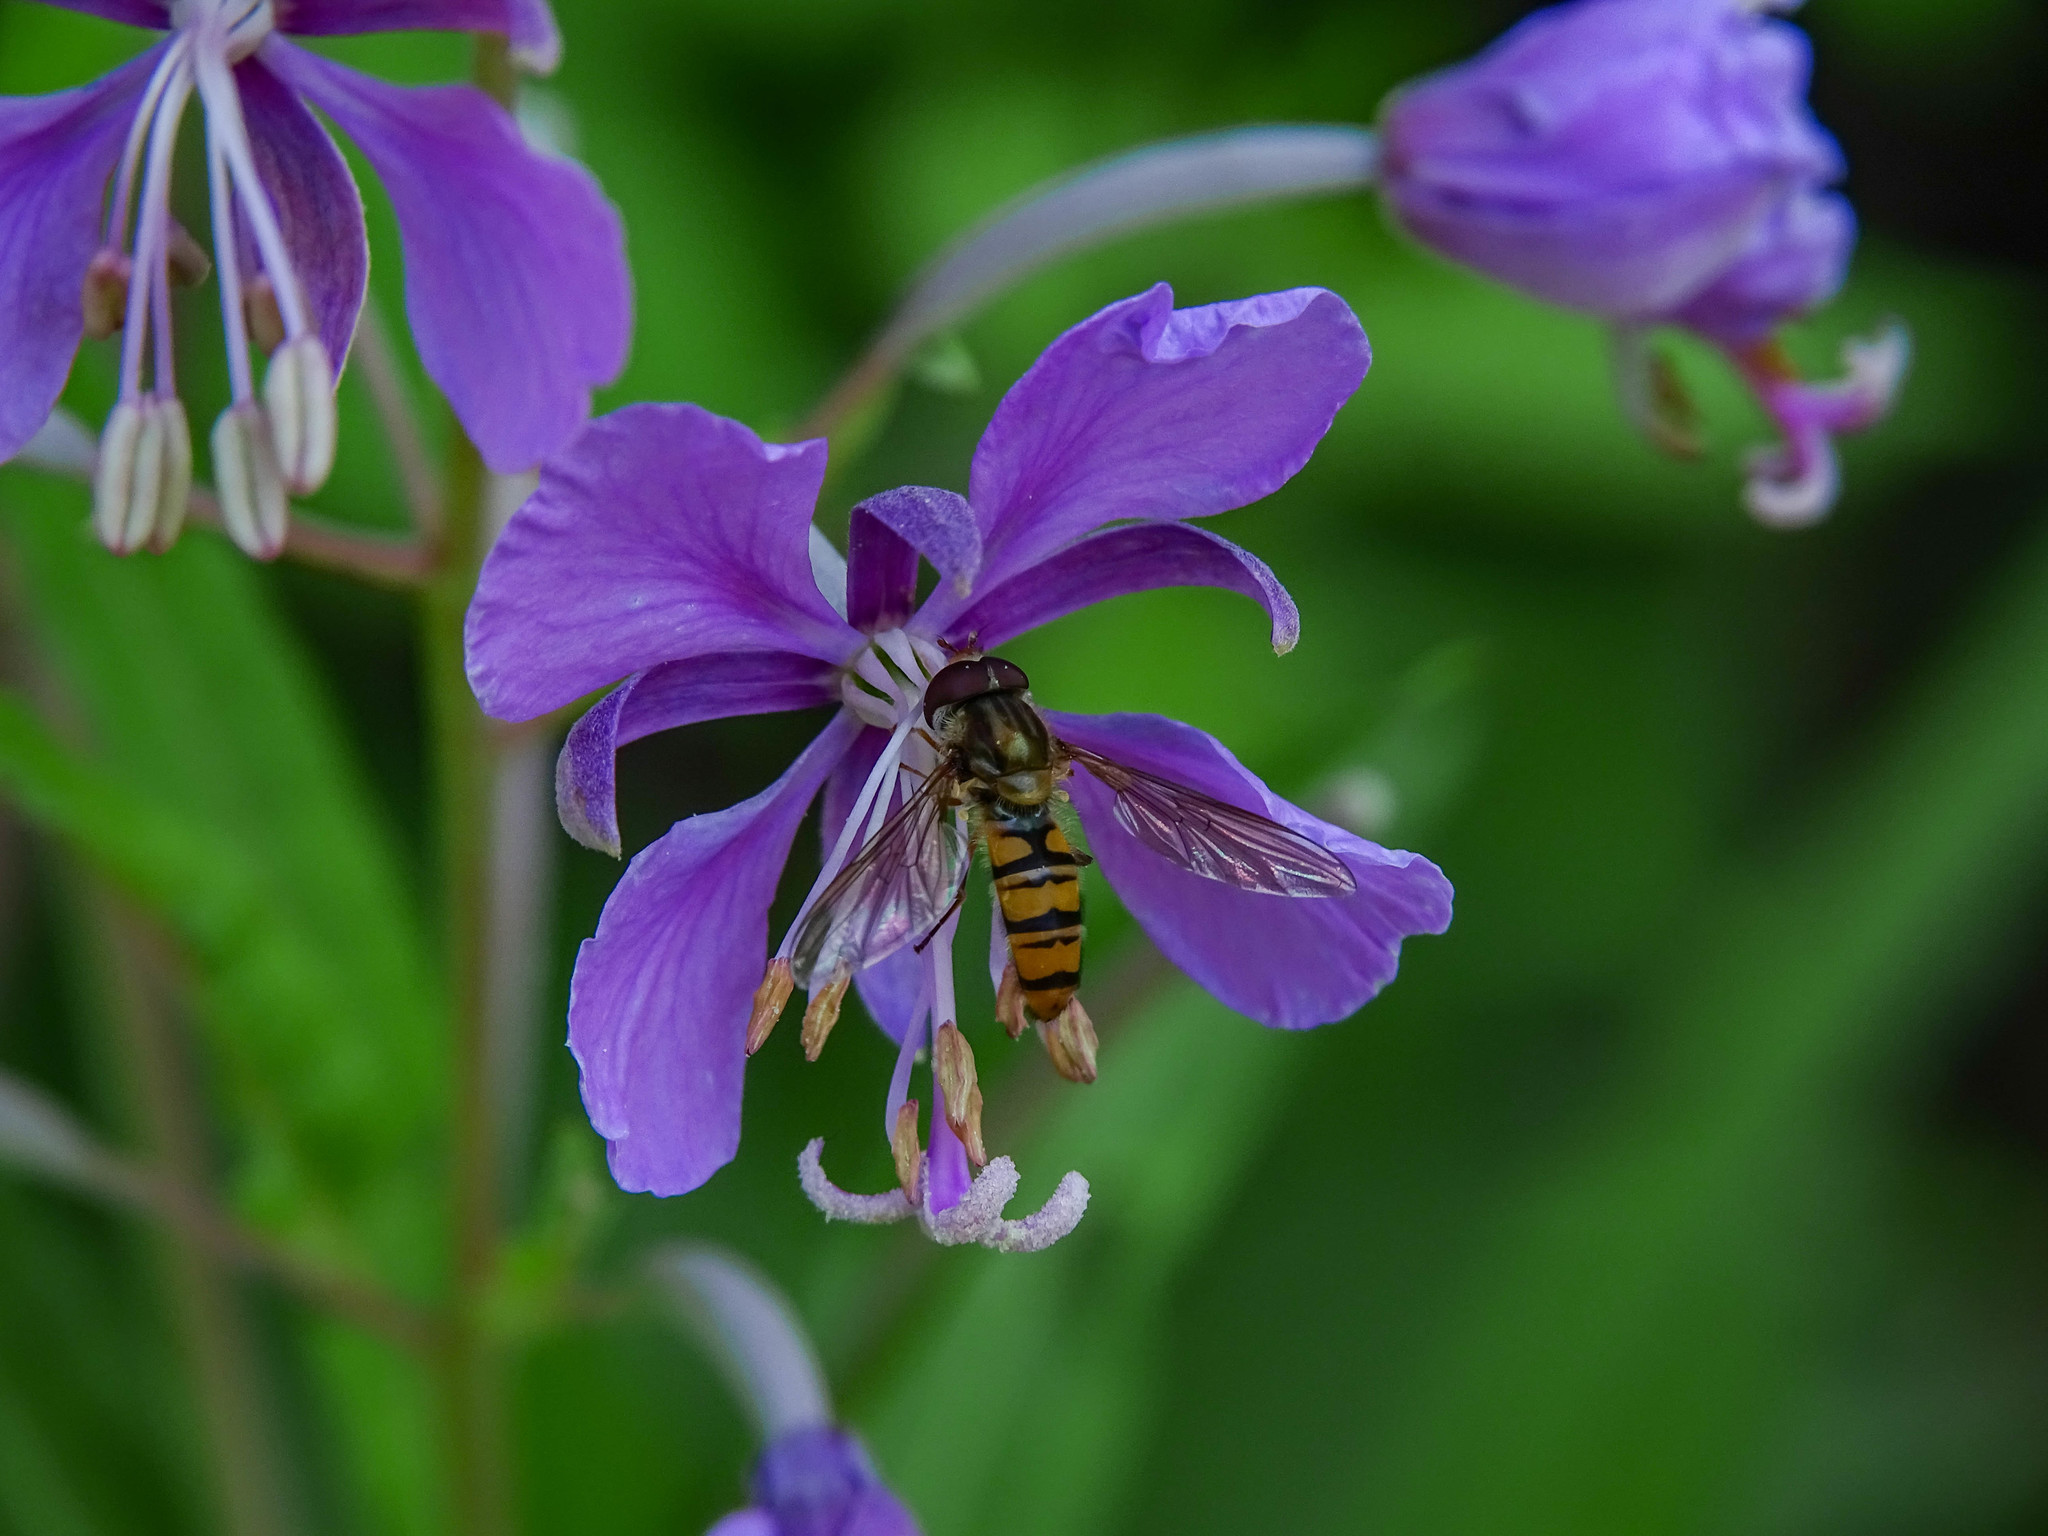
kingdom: Animalia
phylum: Arthropoda
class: Insecta
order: Diptera
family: Syrphidae
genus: Episyrphus
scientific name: Episyrphus balteatus
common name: Marmalade hoverfly
